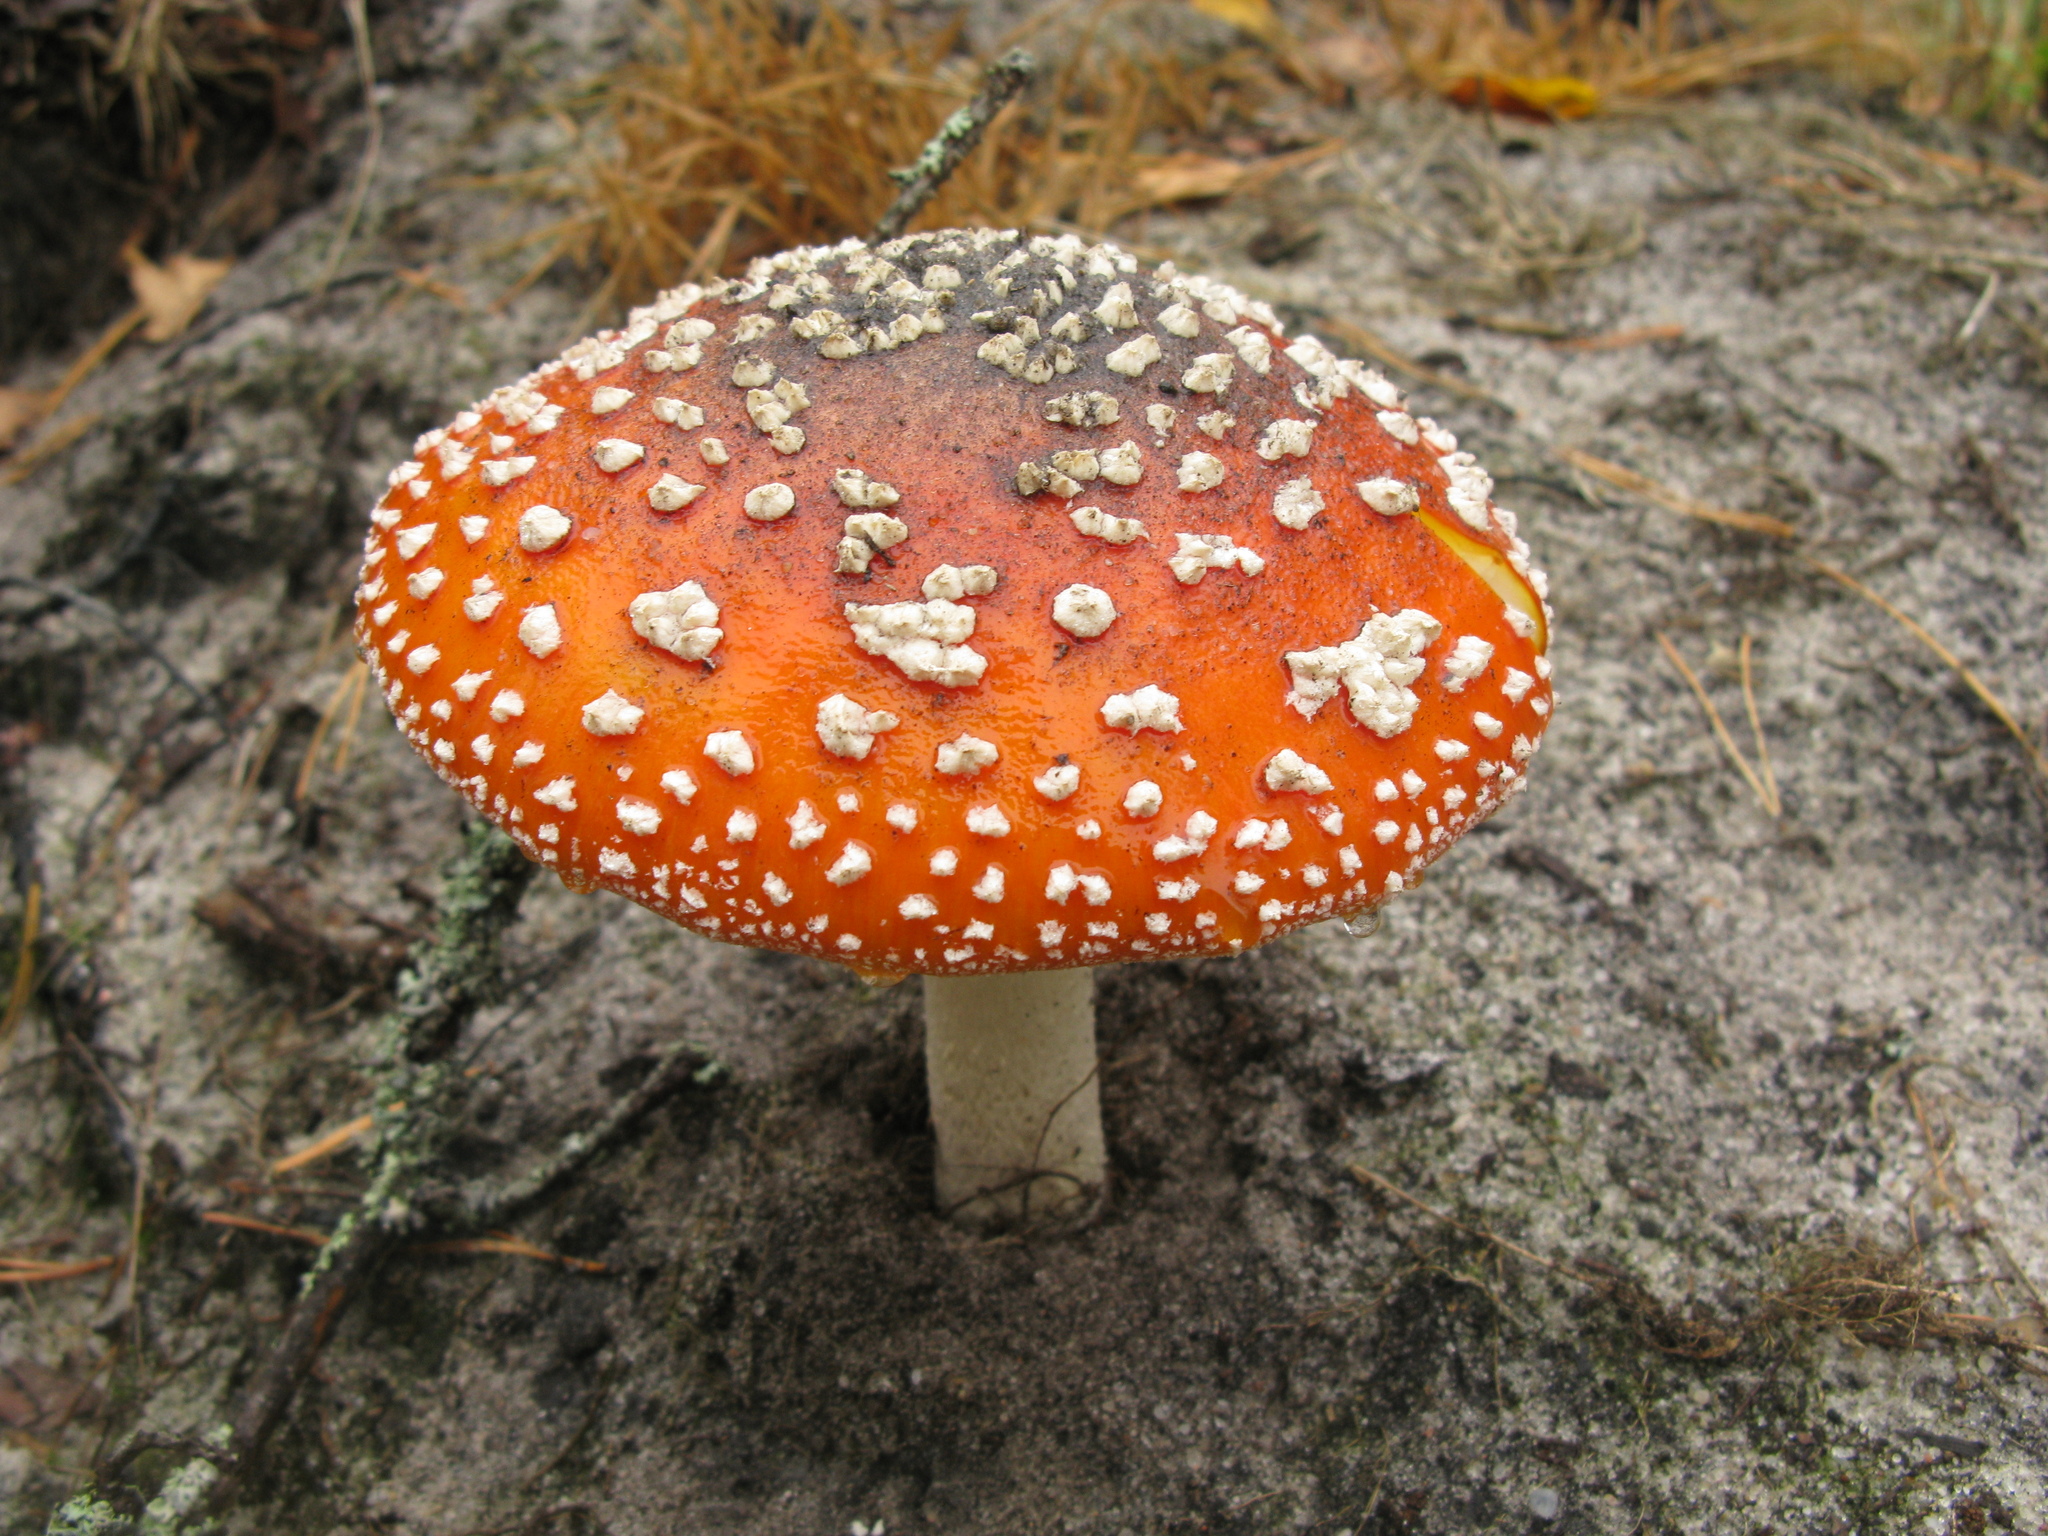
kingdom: Fungi
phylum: Basidiomycota
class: Agaricomycetes
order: Agaricales
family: Amanitaceae
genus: Amanita
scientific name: Amanita muscaria
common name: Fly agaric
